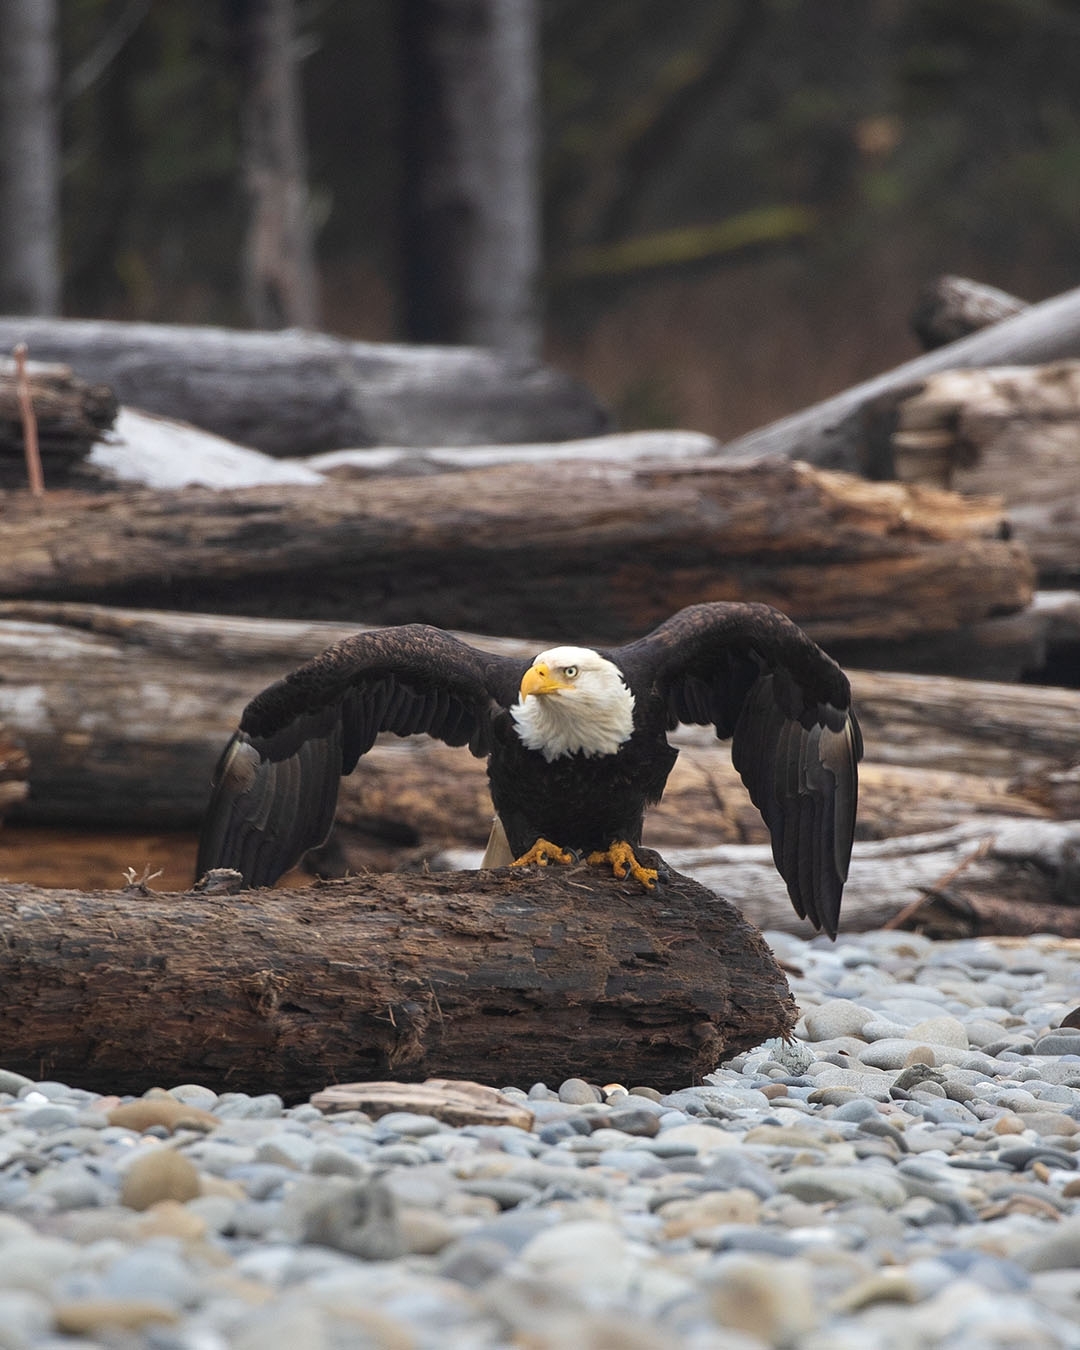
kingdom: Animalia
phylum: Chordata
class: Aves
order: Accipitriformes
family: Accipitridae
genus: Haliaeetus
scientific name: Haliaeetus leucocephalus
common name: Bald eagle
